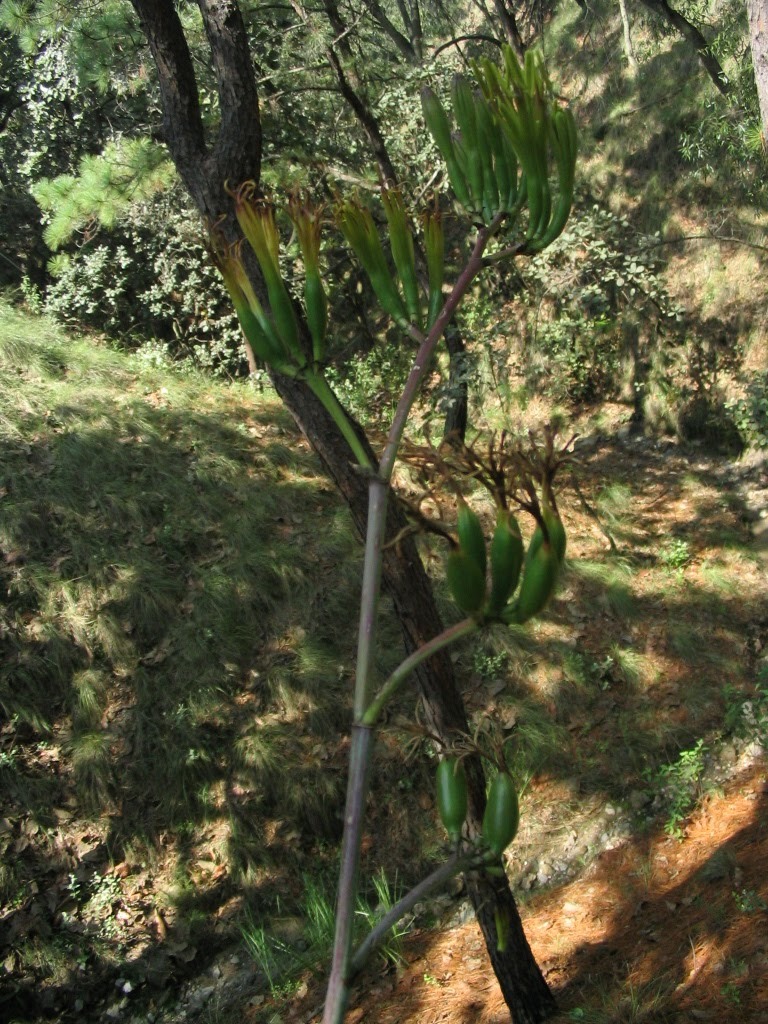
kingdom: Plantae
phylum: Tracheophyta
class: Liliopsida
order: Asparagales
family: Asparagaceae
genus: Agave
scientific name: Agave guadalajarana
